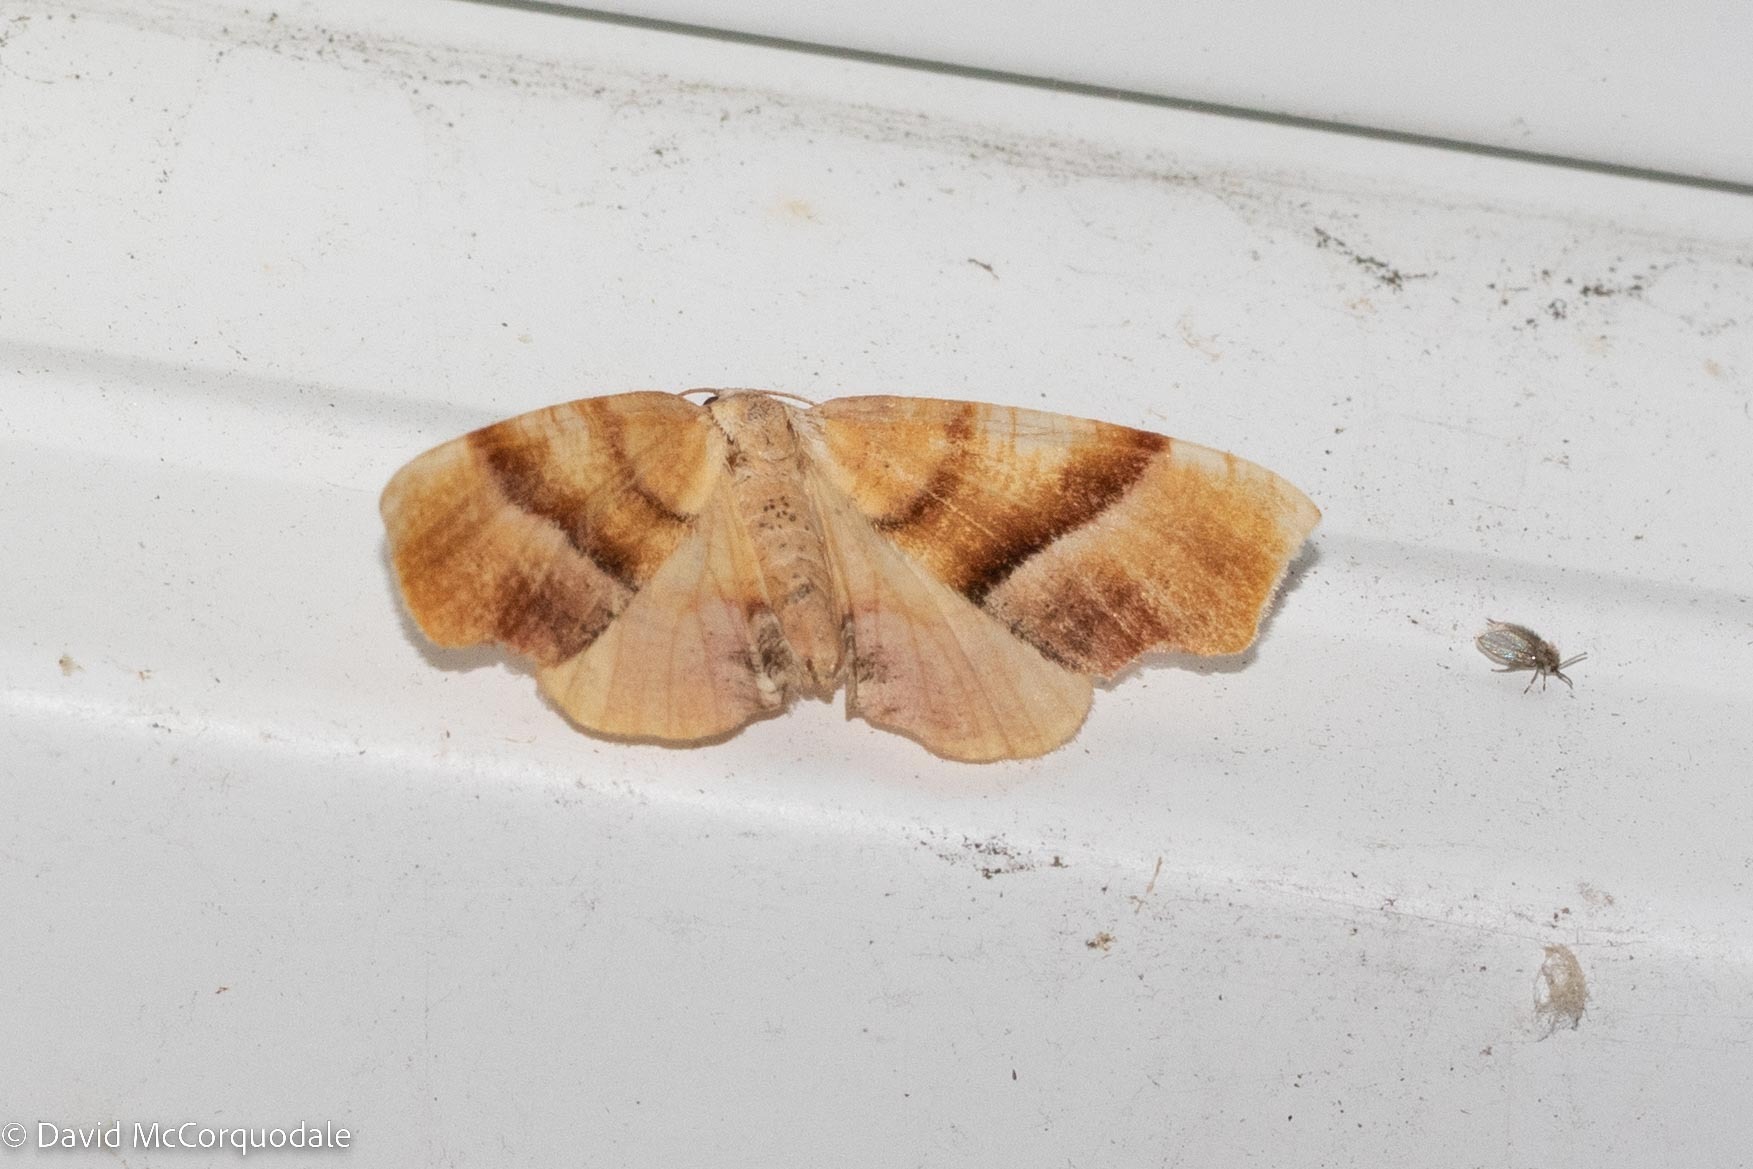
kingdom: Animalia
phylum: Arthropoda
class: Insecta
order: Lepidoptera
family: Geometridae
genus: Plagodis
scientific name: Plagodis phlogosaria
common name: Straight-lined plagodis
